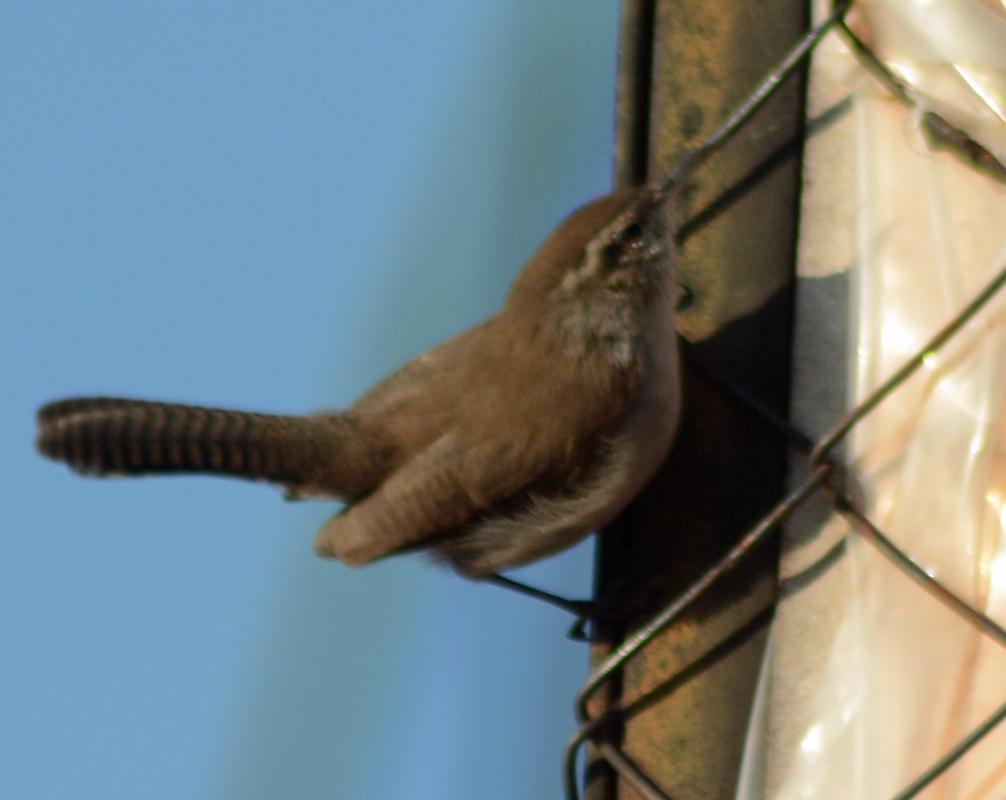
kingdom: Animalia
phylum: Chordata
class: Aves
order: Passeriformes
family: Troglodytidae
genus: Thryomanes
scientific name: Thryomanes bewickii
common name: Bewick's wren
